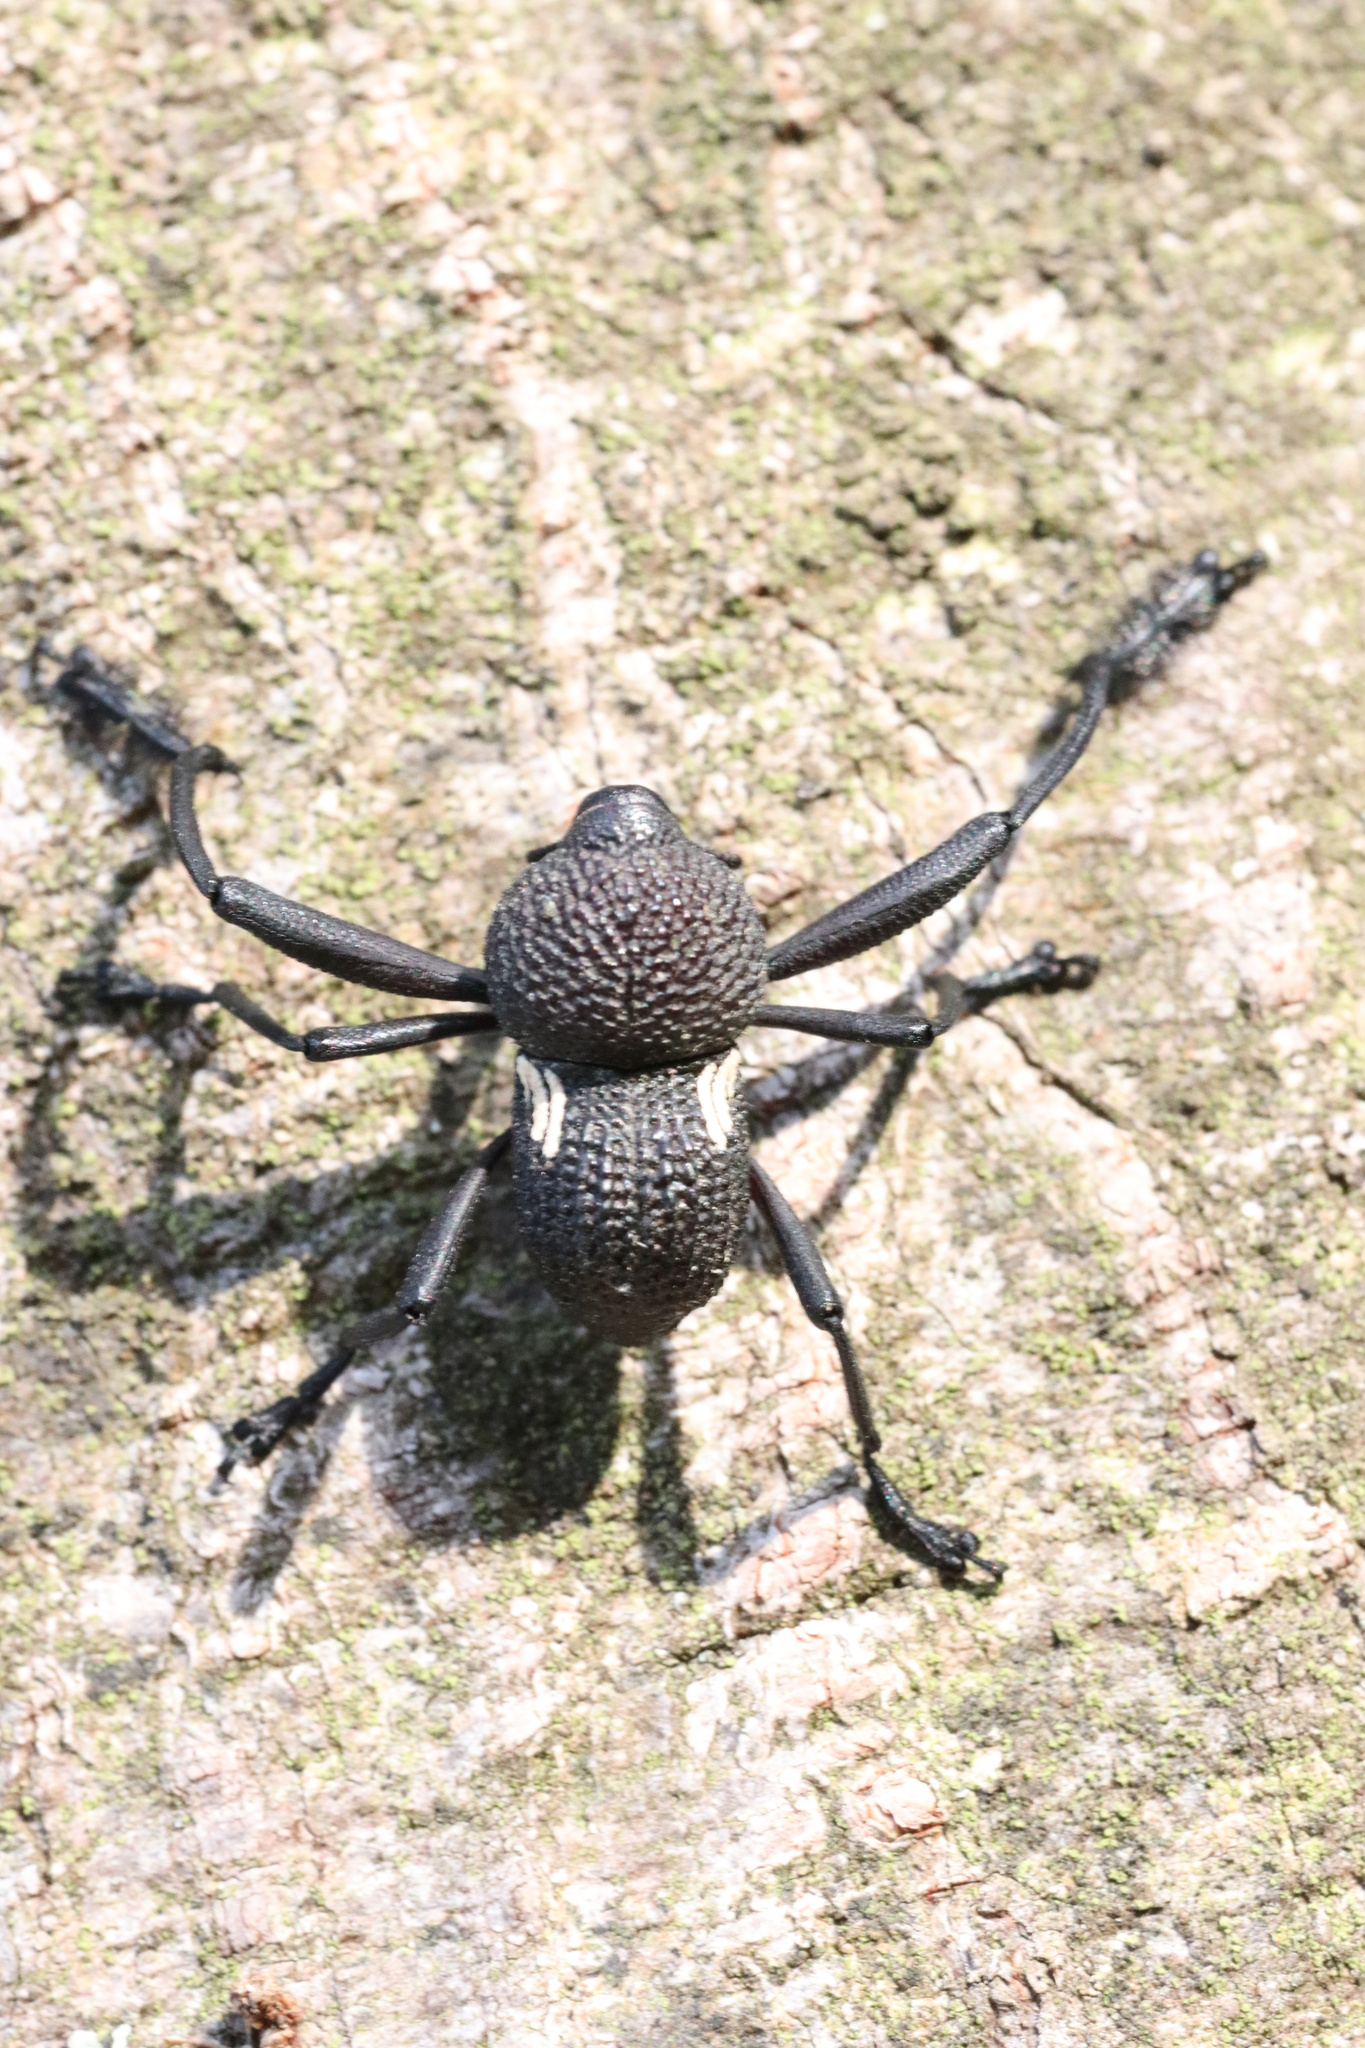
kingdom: Animalia
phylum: Arthropoda
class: Insecta
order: Coleoptera
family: Curculionidae
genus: Rhyephenes
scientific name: Rhyephenes humeralis
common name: Araè±ita chilena del pino
